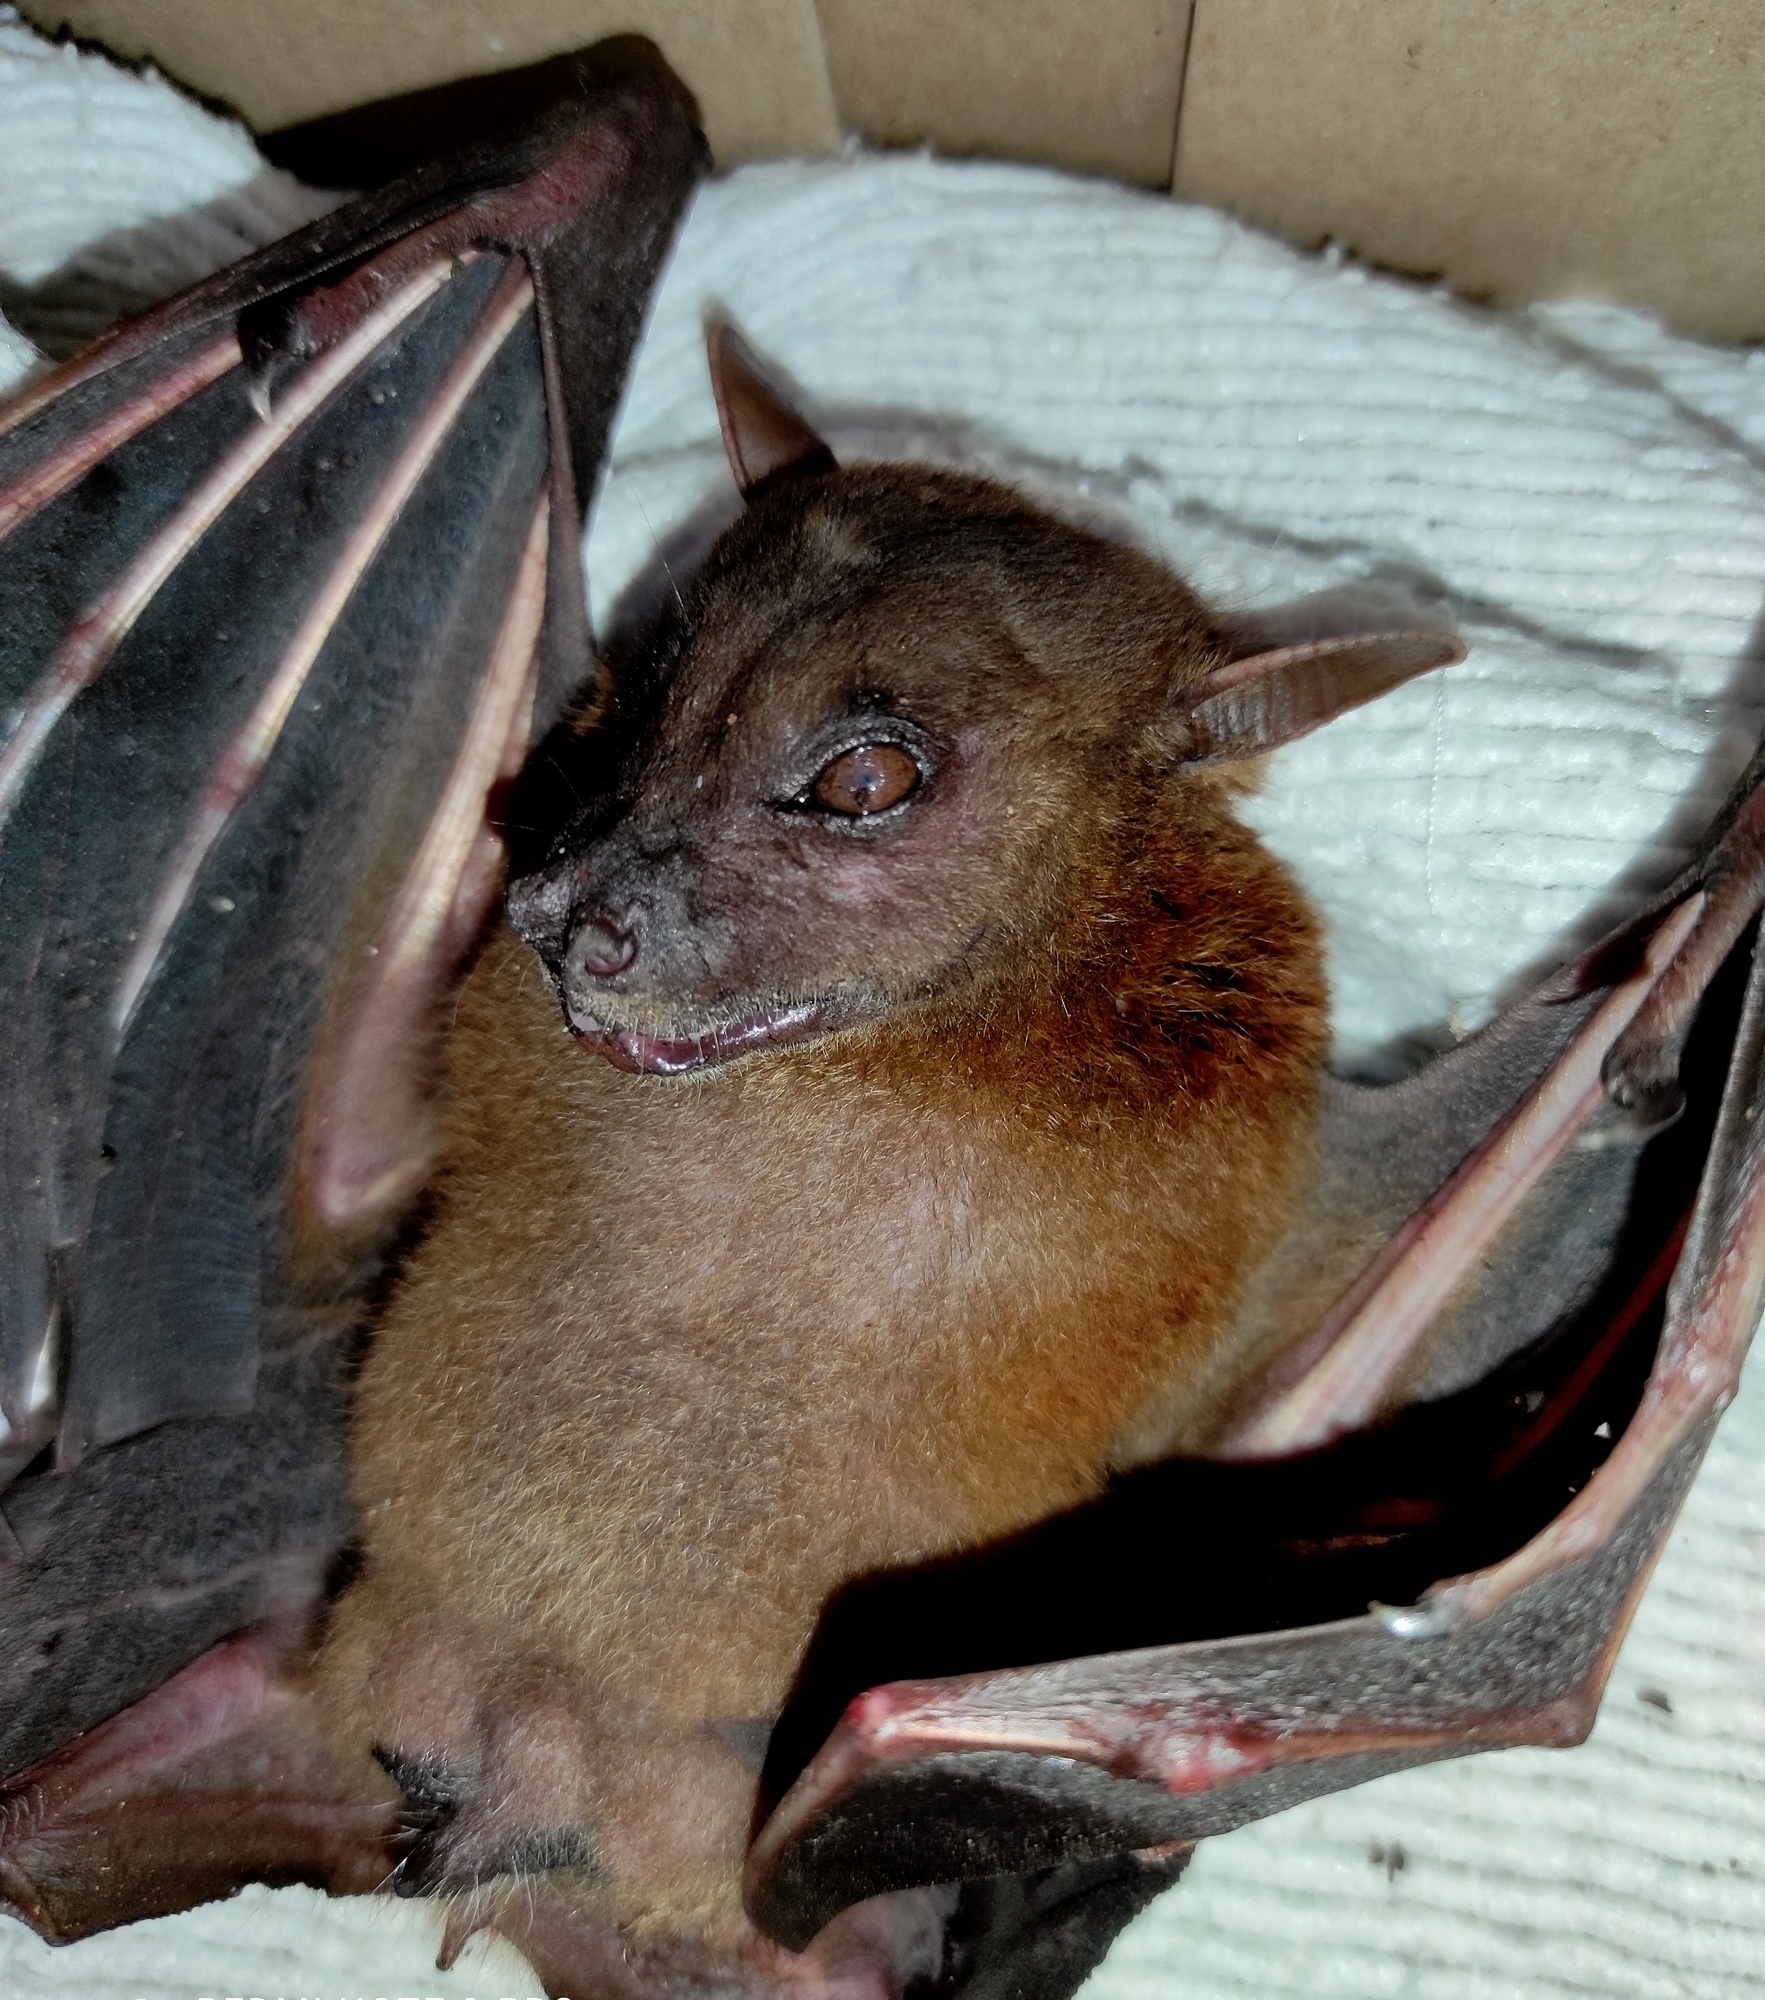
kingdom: Animalia
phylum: Chordata
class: Mammalia
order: Chiroptera
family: Pteropodidae
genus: Cynopterus
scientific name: Cynopterus titthaecheilus
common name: Indonesian short-nosed fruit bat
